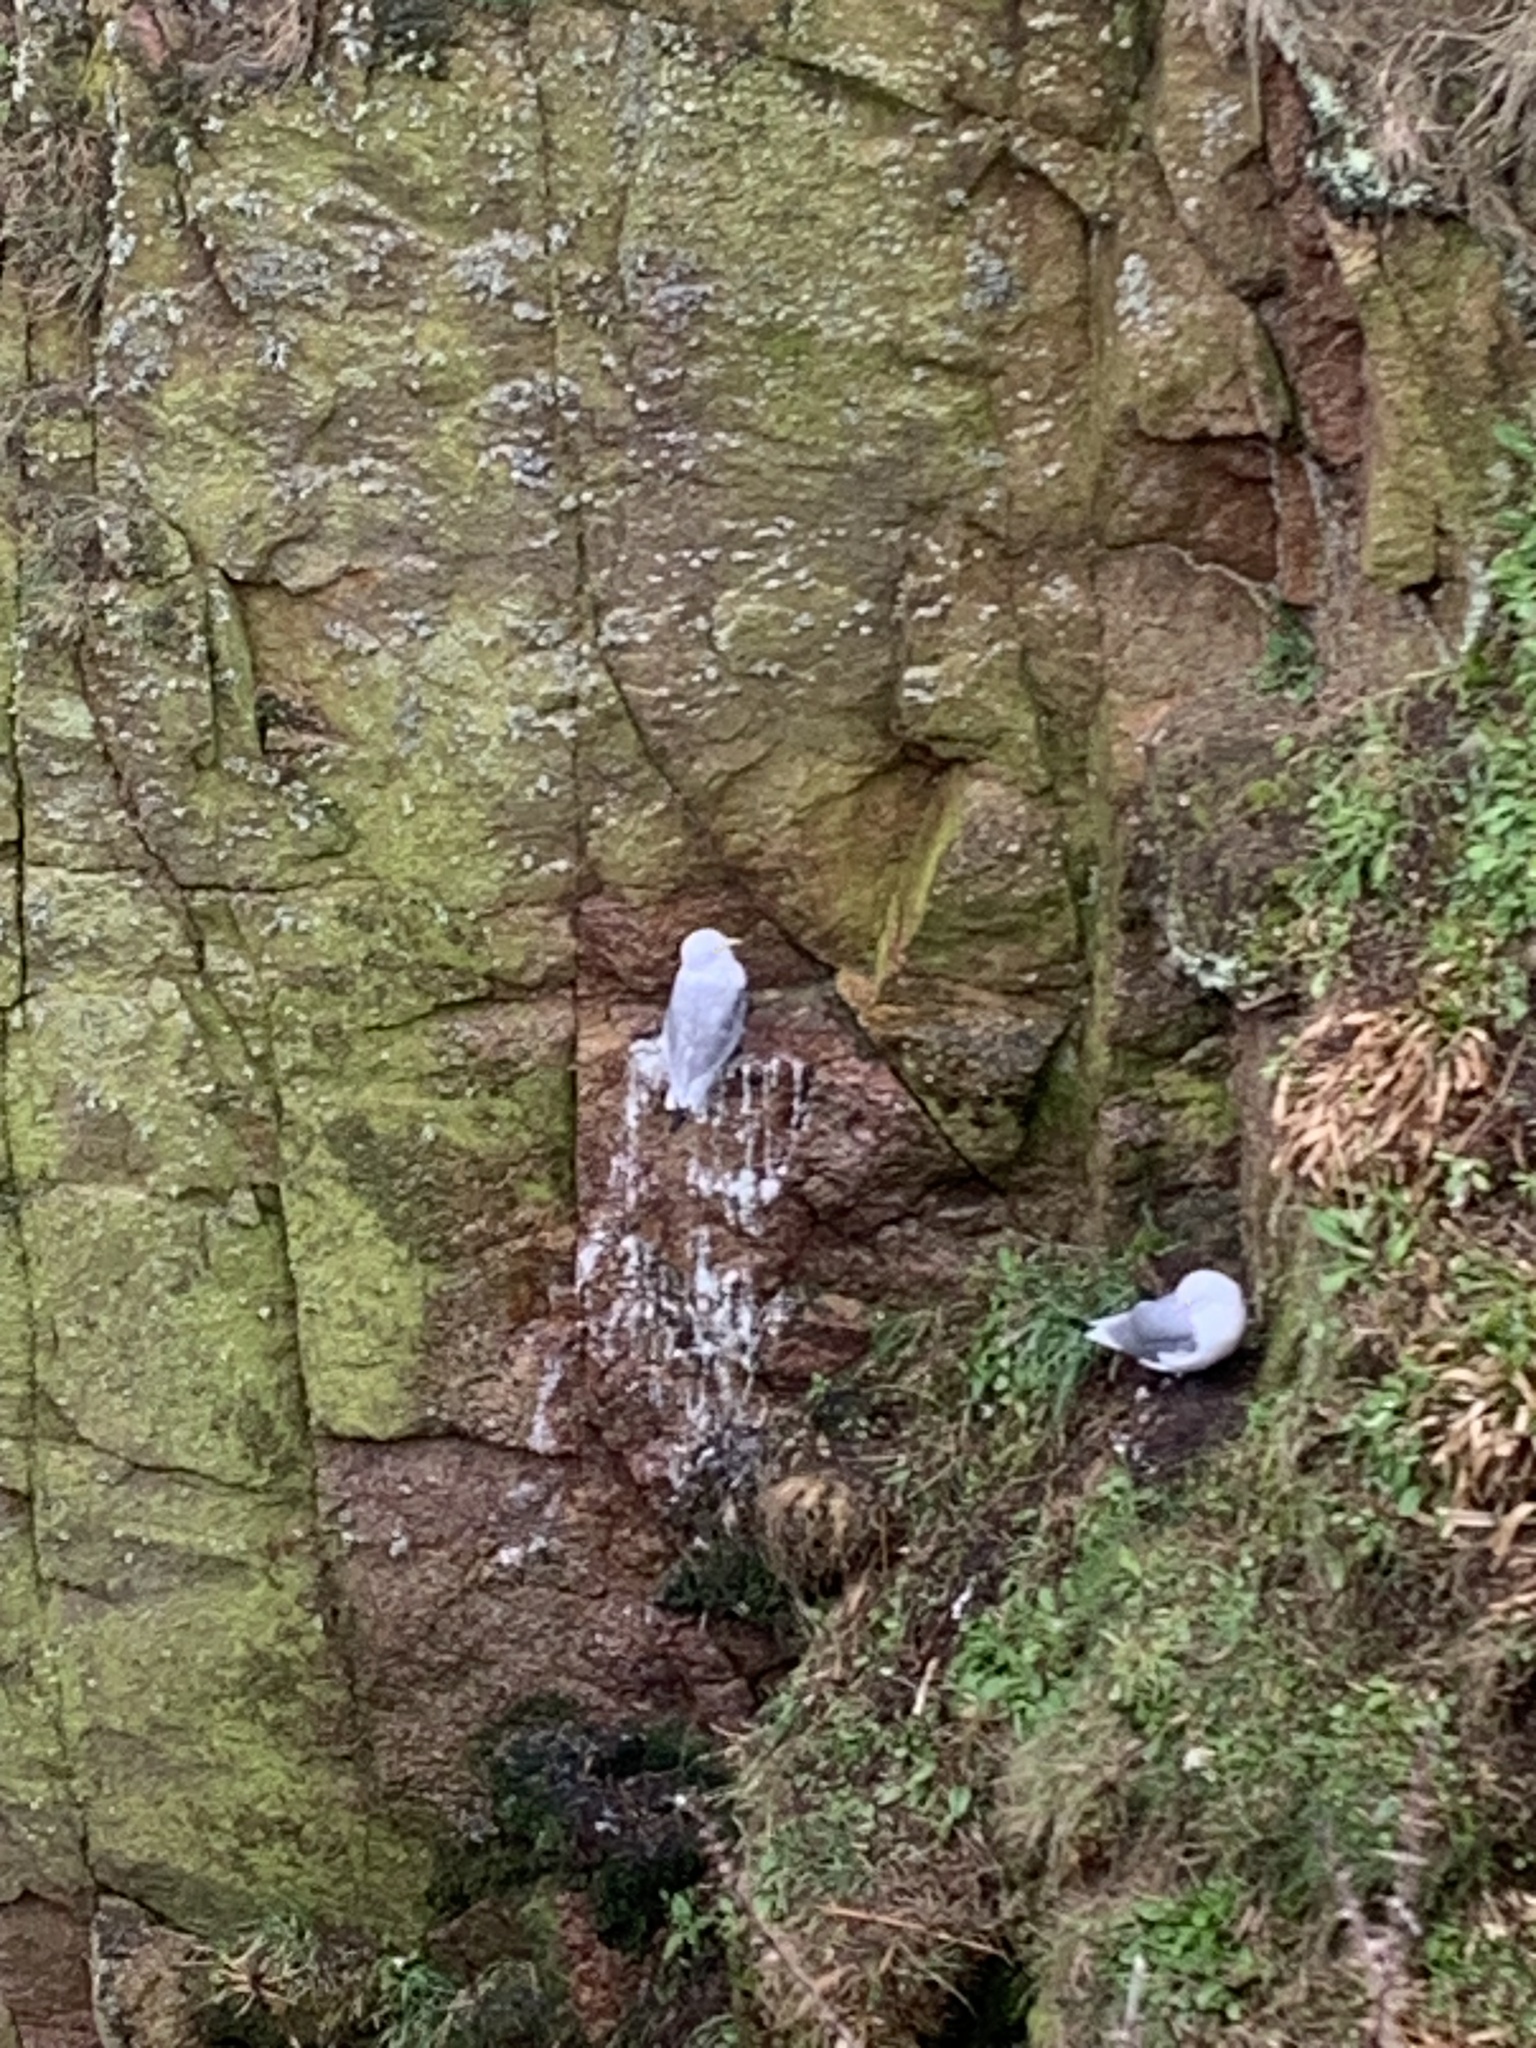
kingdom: Animalia
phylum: Chordata
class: Aves
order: Charadriiformes
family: Laridae
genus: Rissa
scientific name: Rissa tridactyla
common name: Black-legged kittiwake
